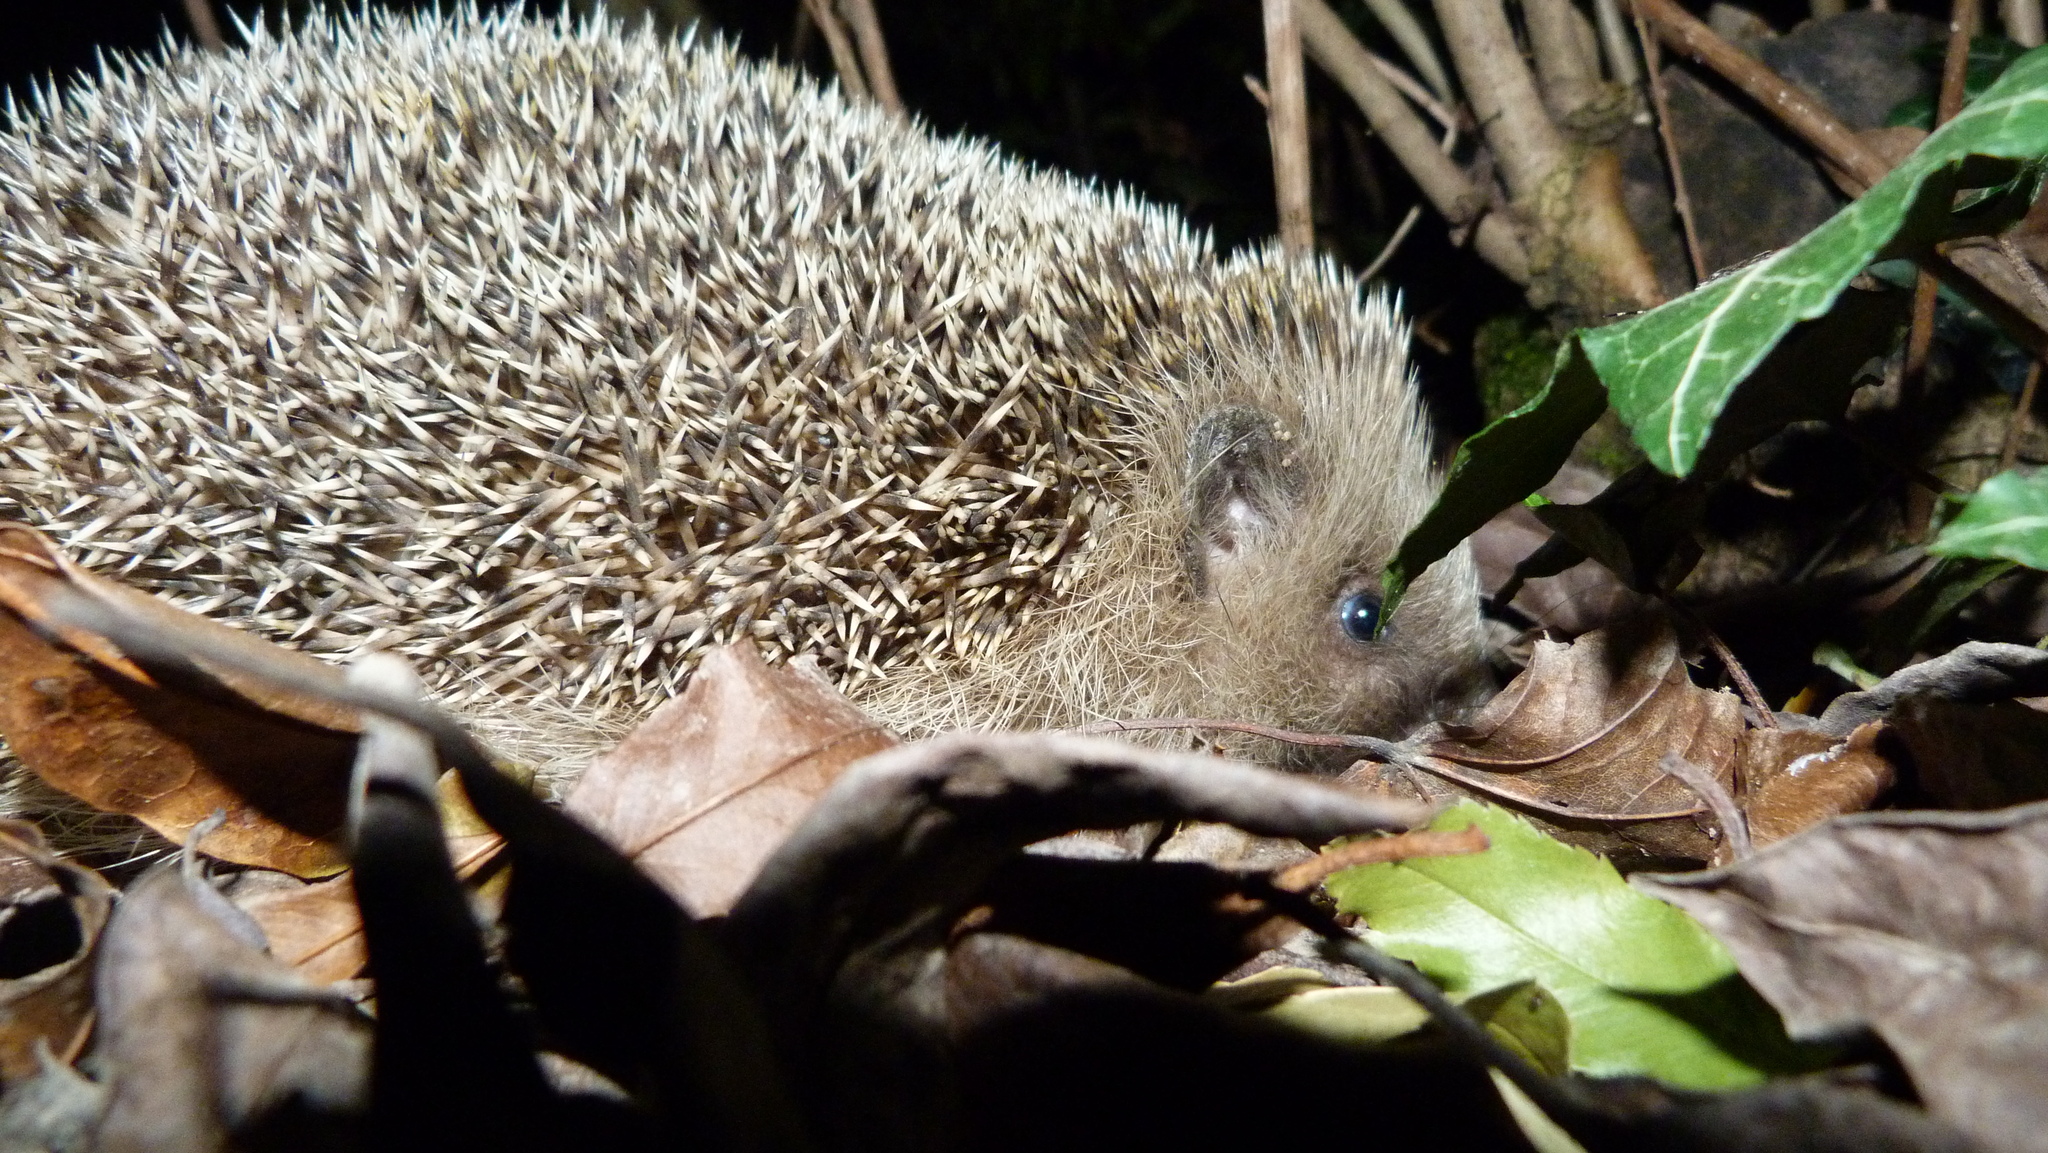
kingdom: Animalia
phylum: Chordata
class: Mammalia
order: Erinaceomorpha
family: Erinaceidae
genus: Erinaceus
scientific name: Erinaceus europaeus
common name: West european hedgehog
